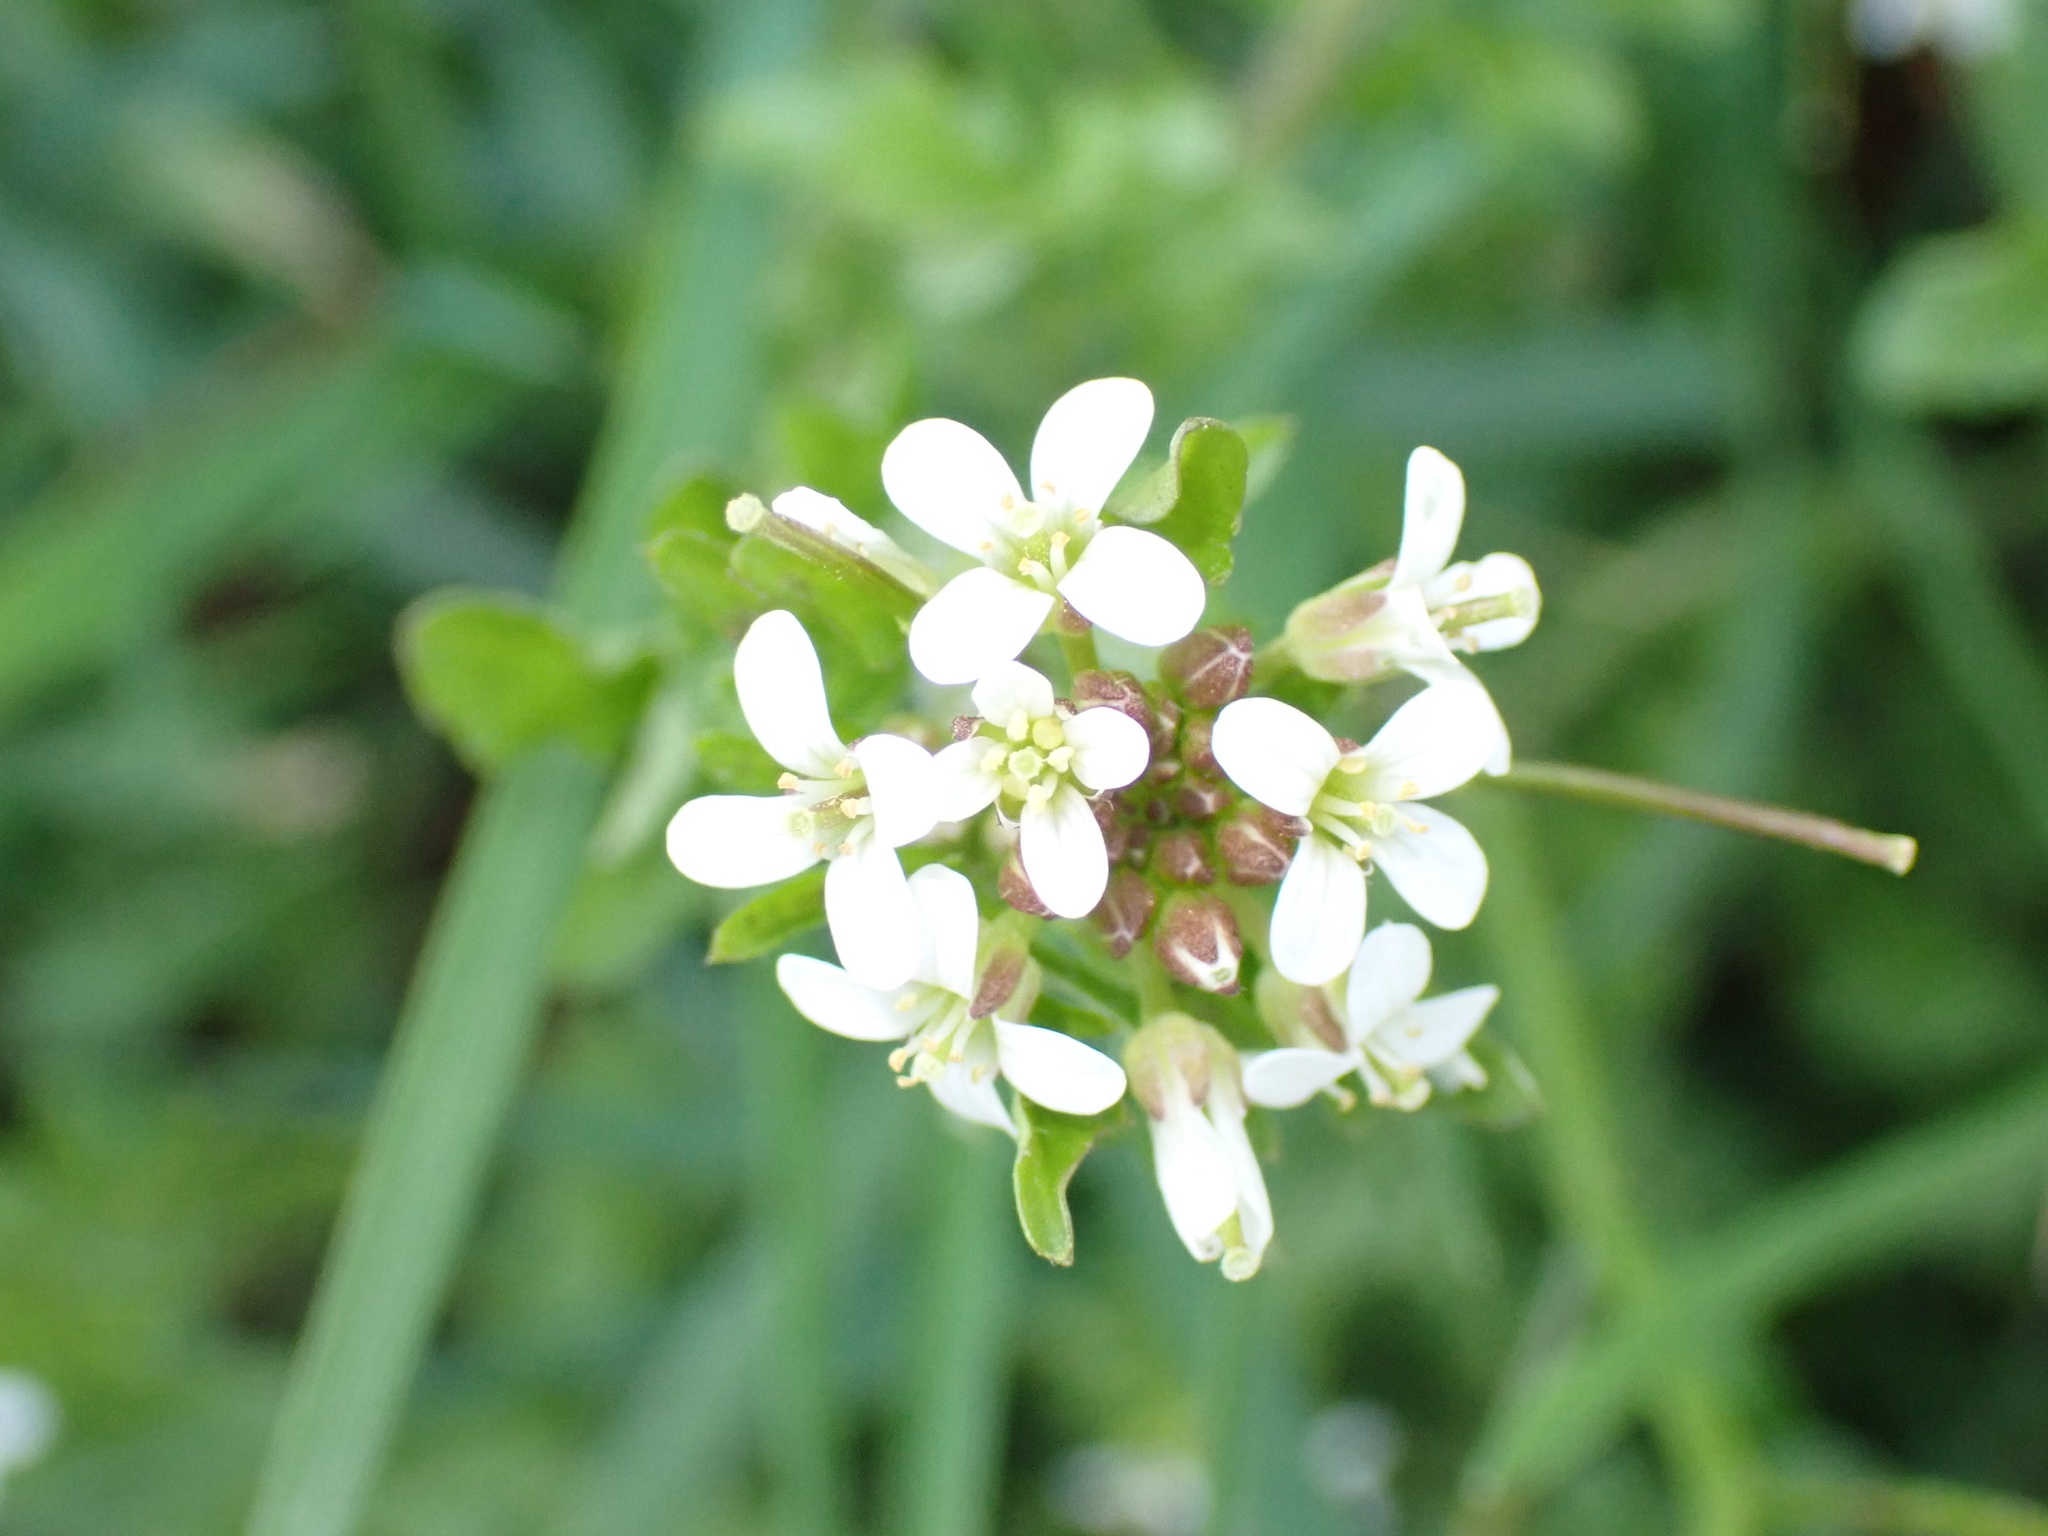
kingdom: Plantae
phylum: Tracheophyta
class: Magnoliopsida
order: Brassicales
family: Brassicaceae
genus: Cardamine
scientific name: Cardamine flexuosa
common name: Woodland bittercress
